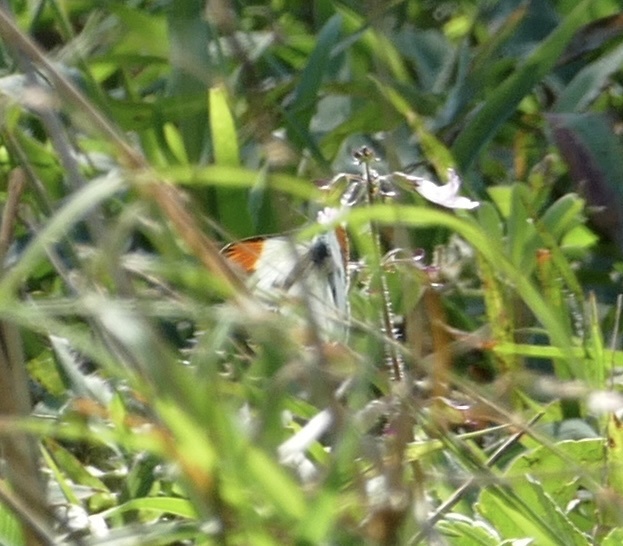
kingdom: Animalia
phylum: Arthropoda
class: Insecta
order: Lepidoptera
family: Pieridae
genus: Colotis
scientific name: Colotis evagore
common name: Desert orange-tip
